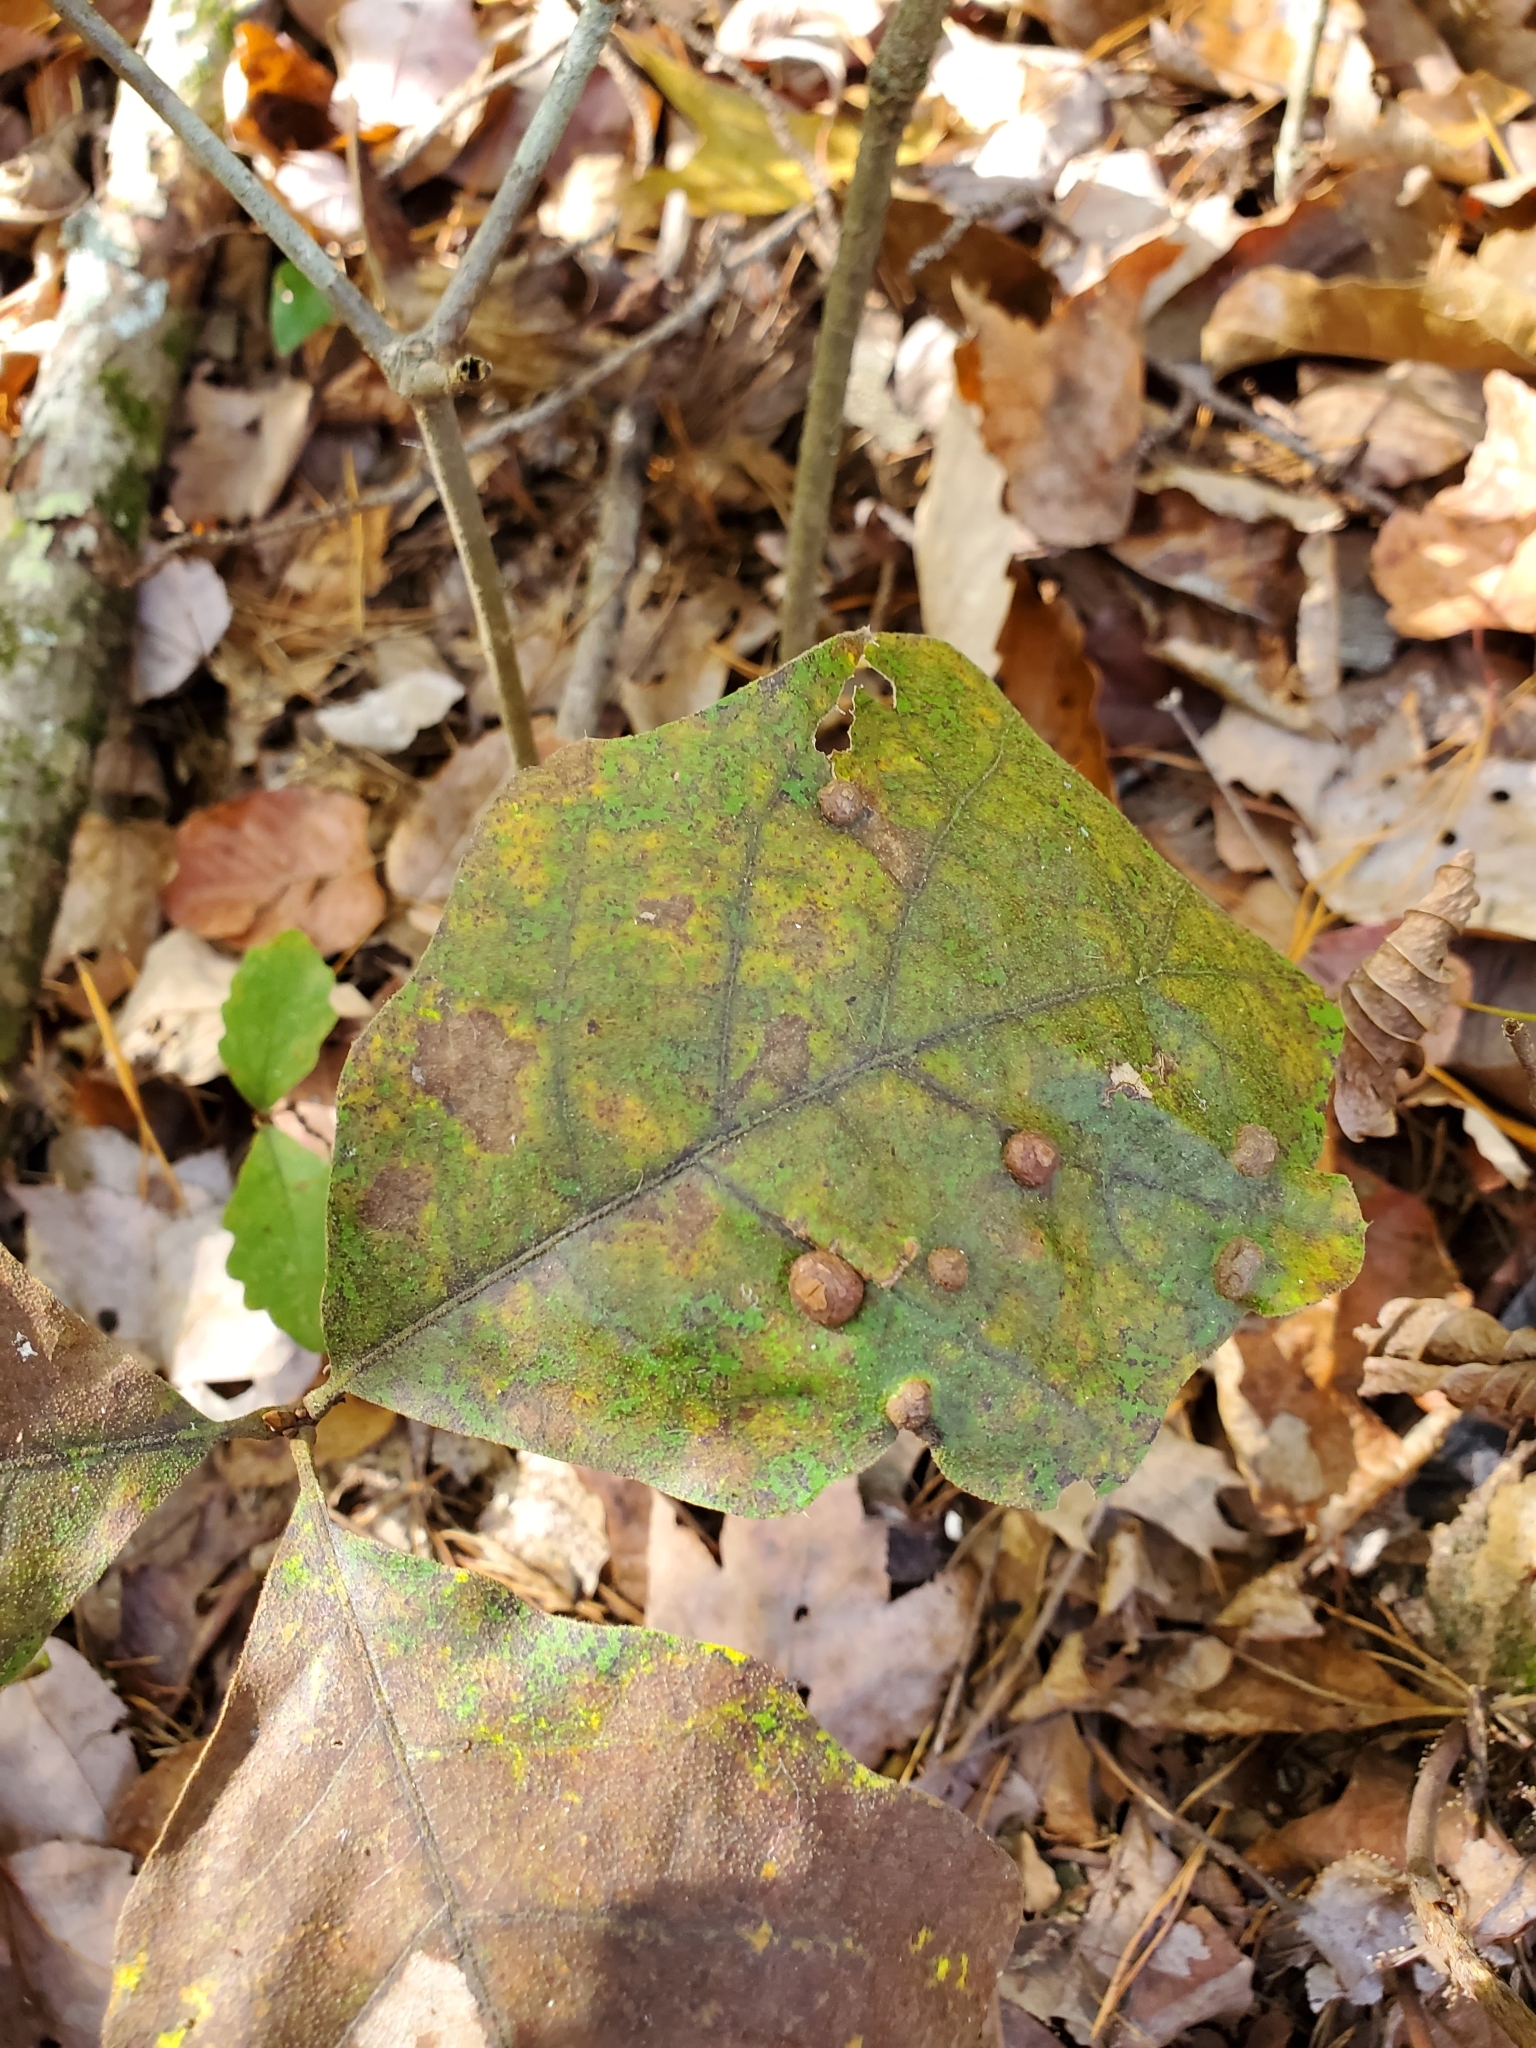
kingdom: Animalia
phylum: Arthropoda
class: Insecta
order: Diptera
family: Cecidomyiidae
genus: Polystepha
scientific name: Polystepha pilulae
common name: Oak leaf gall midge
